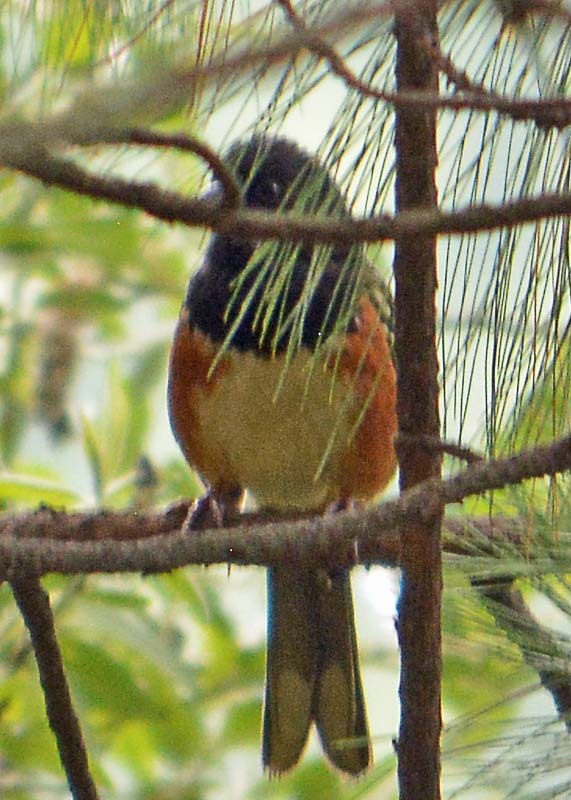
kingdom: Animalia
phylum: Chordata
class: Aves
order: Passeriformes
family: Passerellidae
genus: Pipilo
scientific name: Pipilo maculatus
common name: Spotted towhee
